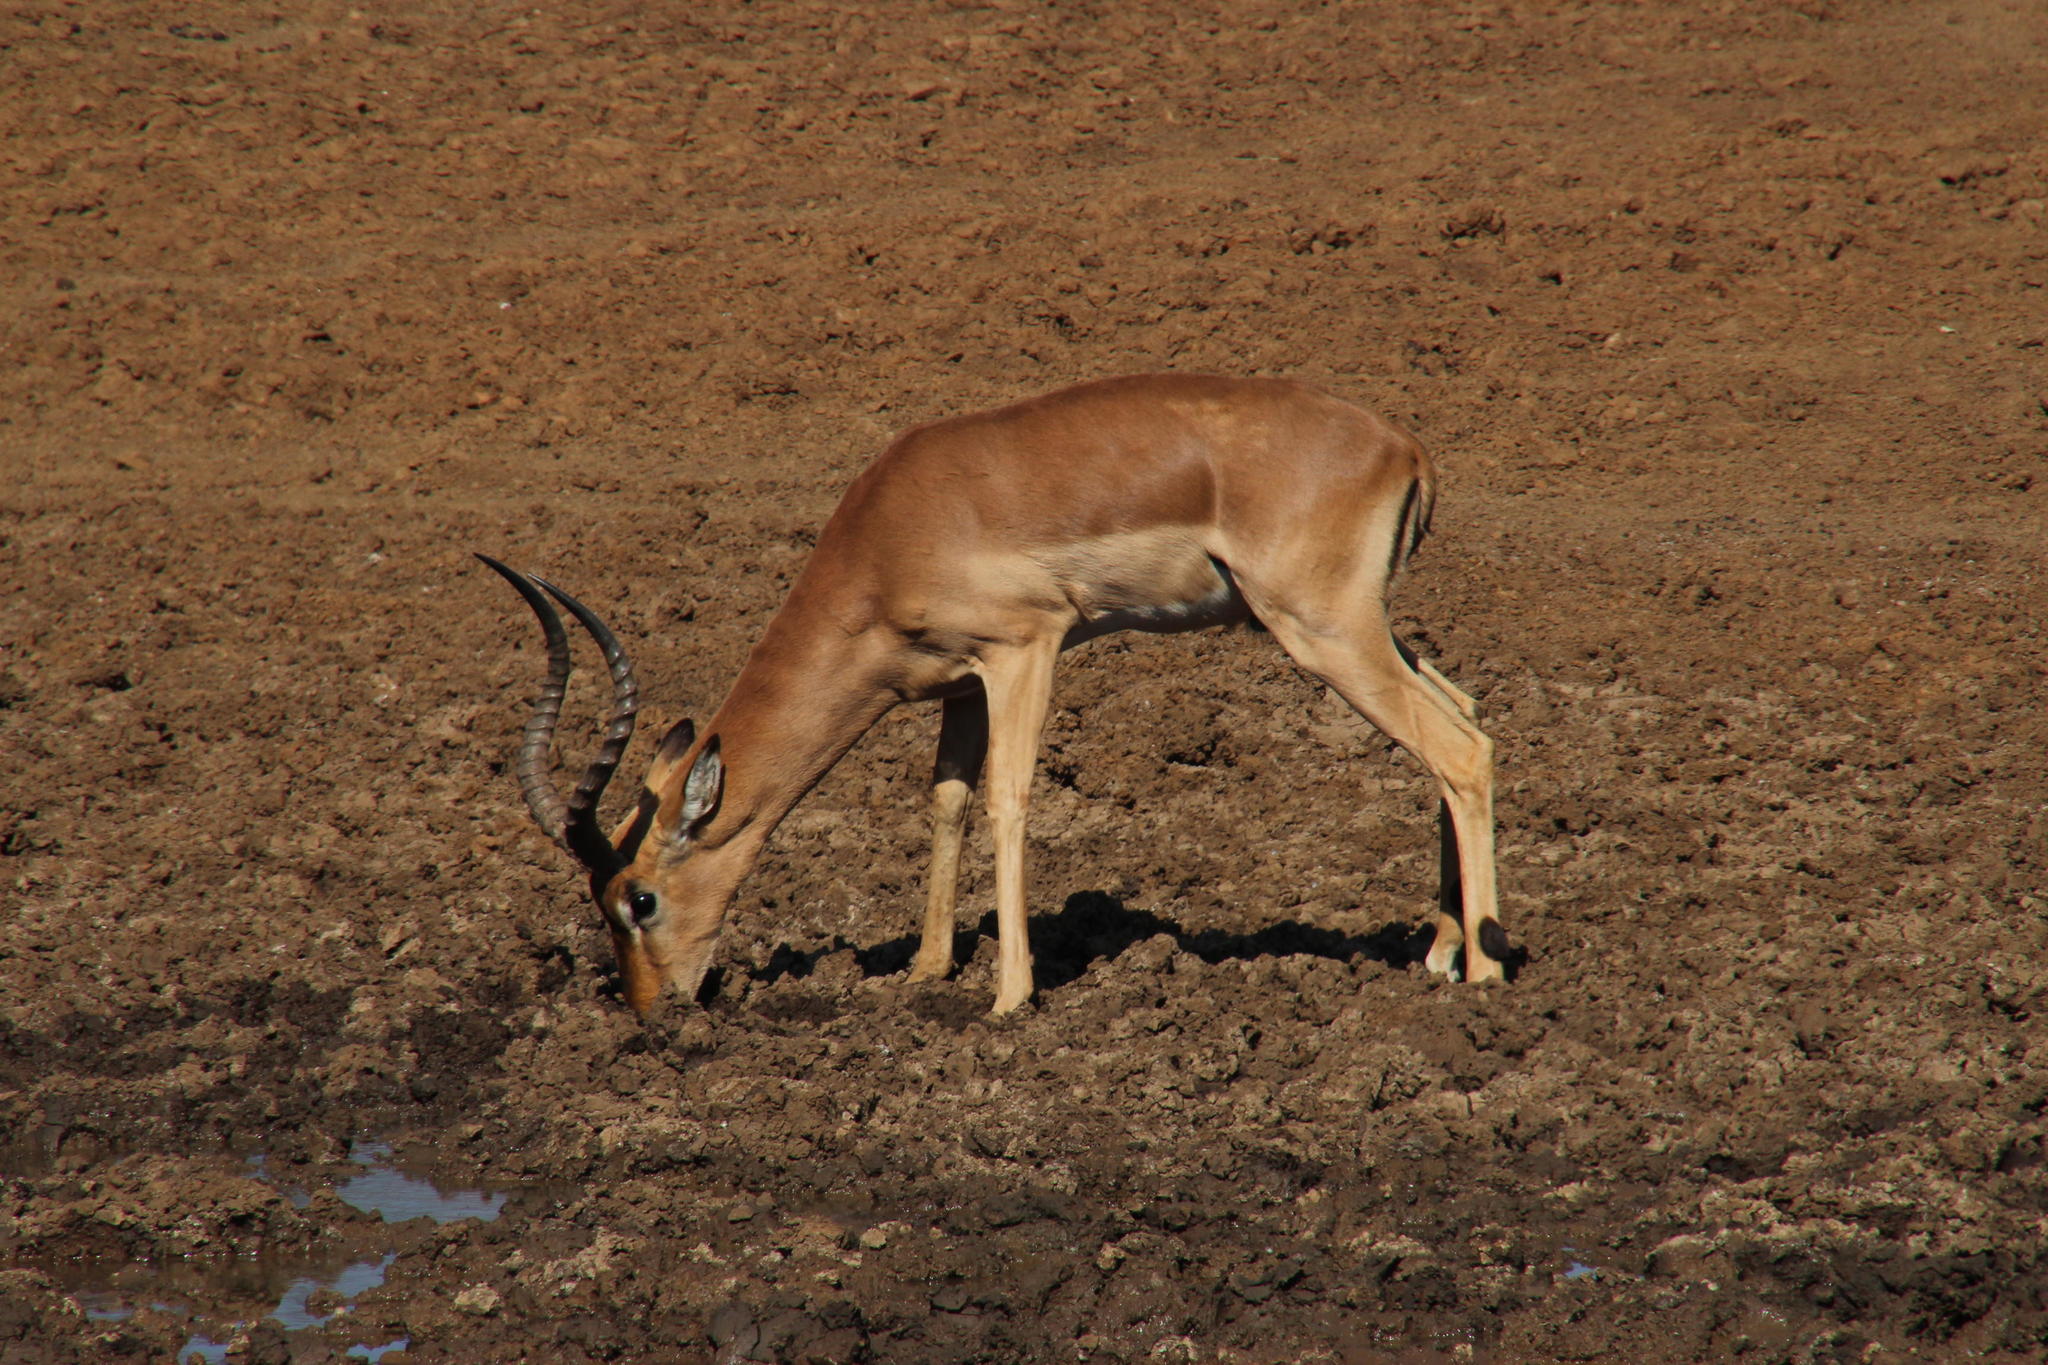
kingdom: Animalia
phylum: Chordata
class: Mammalia
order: Artiodactyla
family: Bovidae
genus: Aepyceros
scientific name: Aepyceros melampus
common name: Impala
